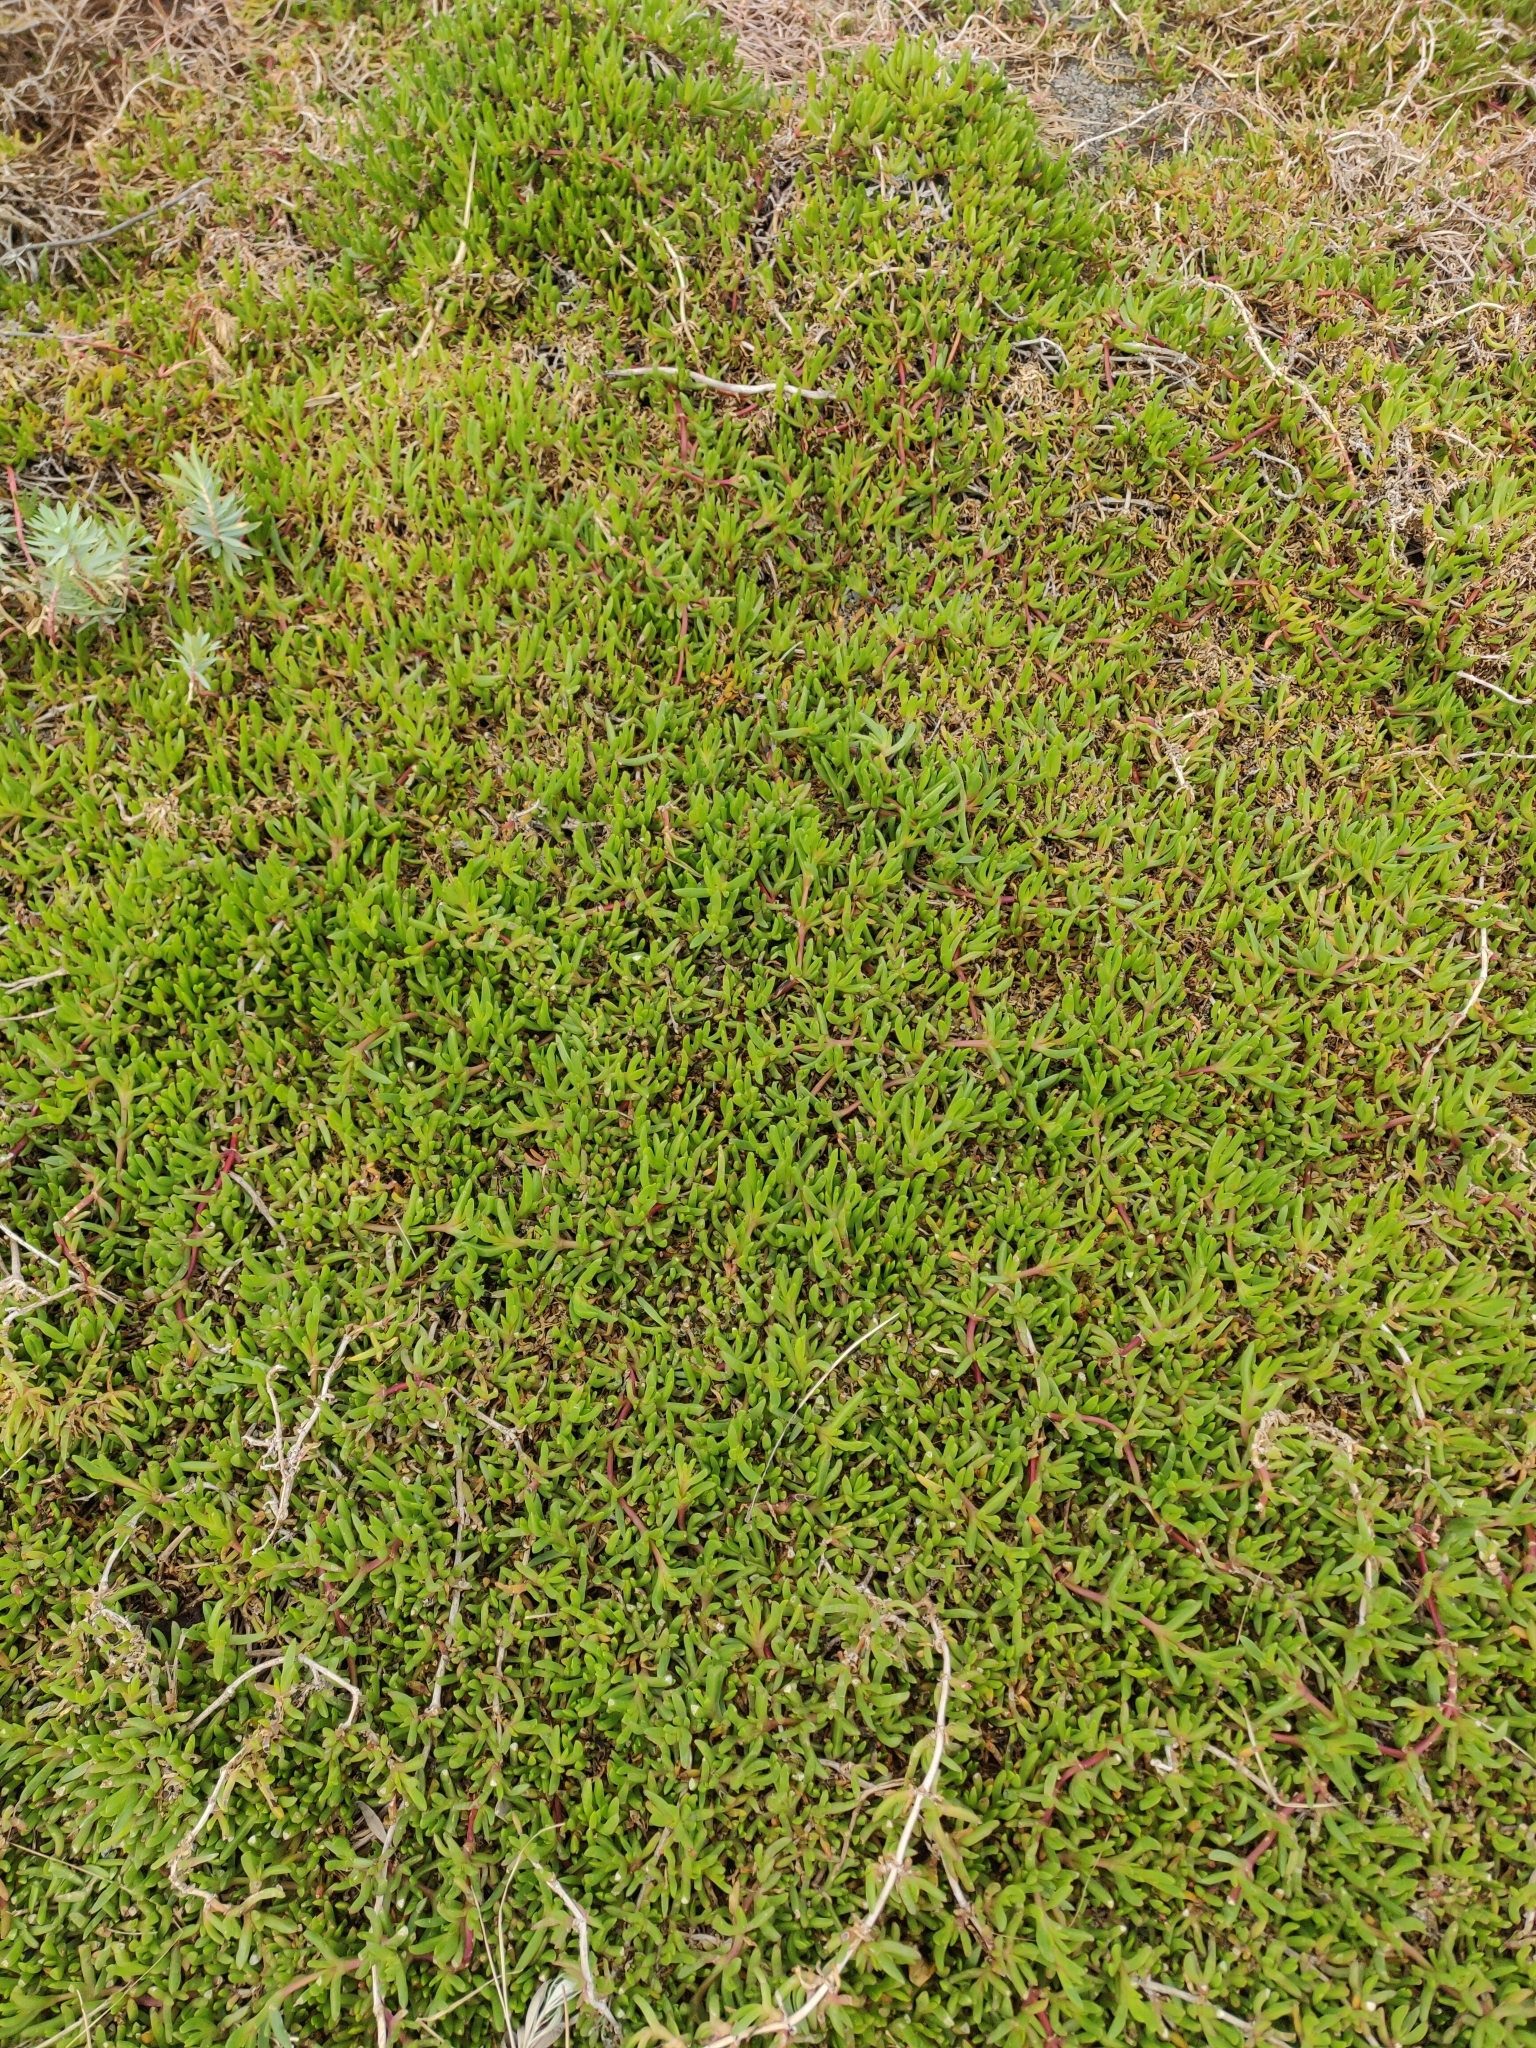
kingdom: Plantae
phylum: Tracheophyta
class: Magnoliopsida
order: Caryophyllales
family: Aizoaceae
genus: Disphyma
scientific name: Disphyma australe
